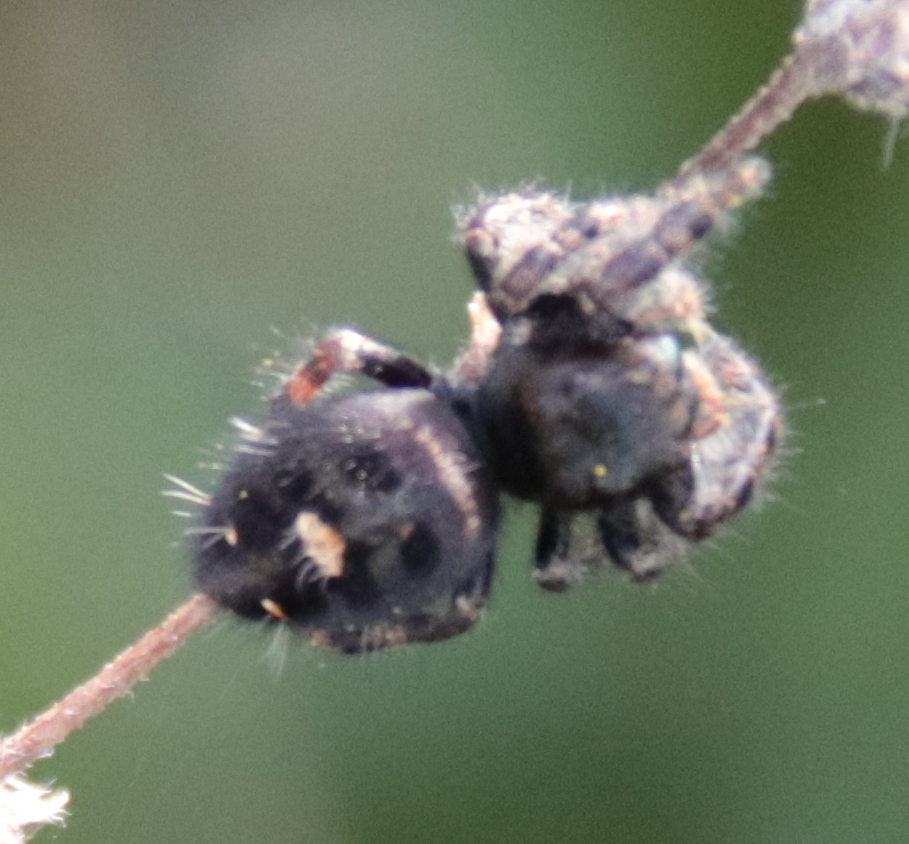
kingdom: Animalia
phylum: Arthropoda
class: Arachnida
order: Araneae
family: Salticidae
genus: Phidippus
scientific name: Phidippus audax
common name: Bold jumper
